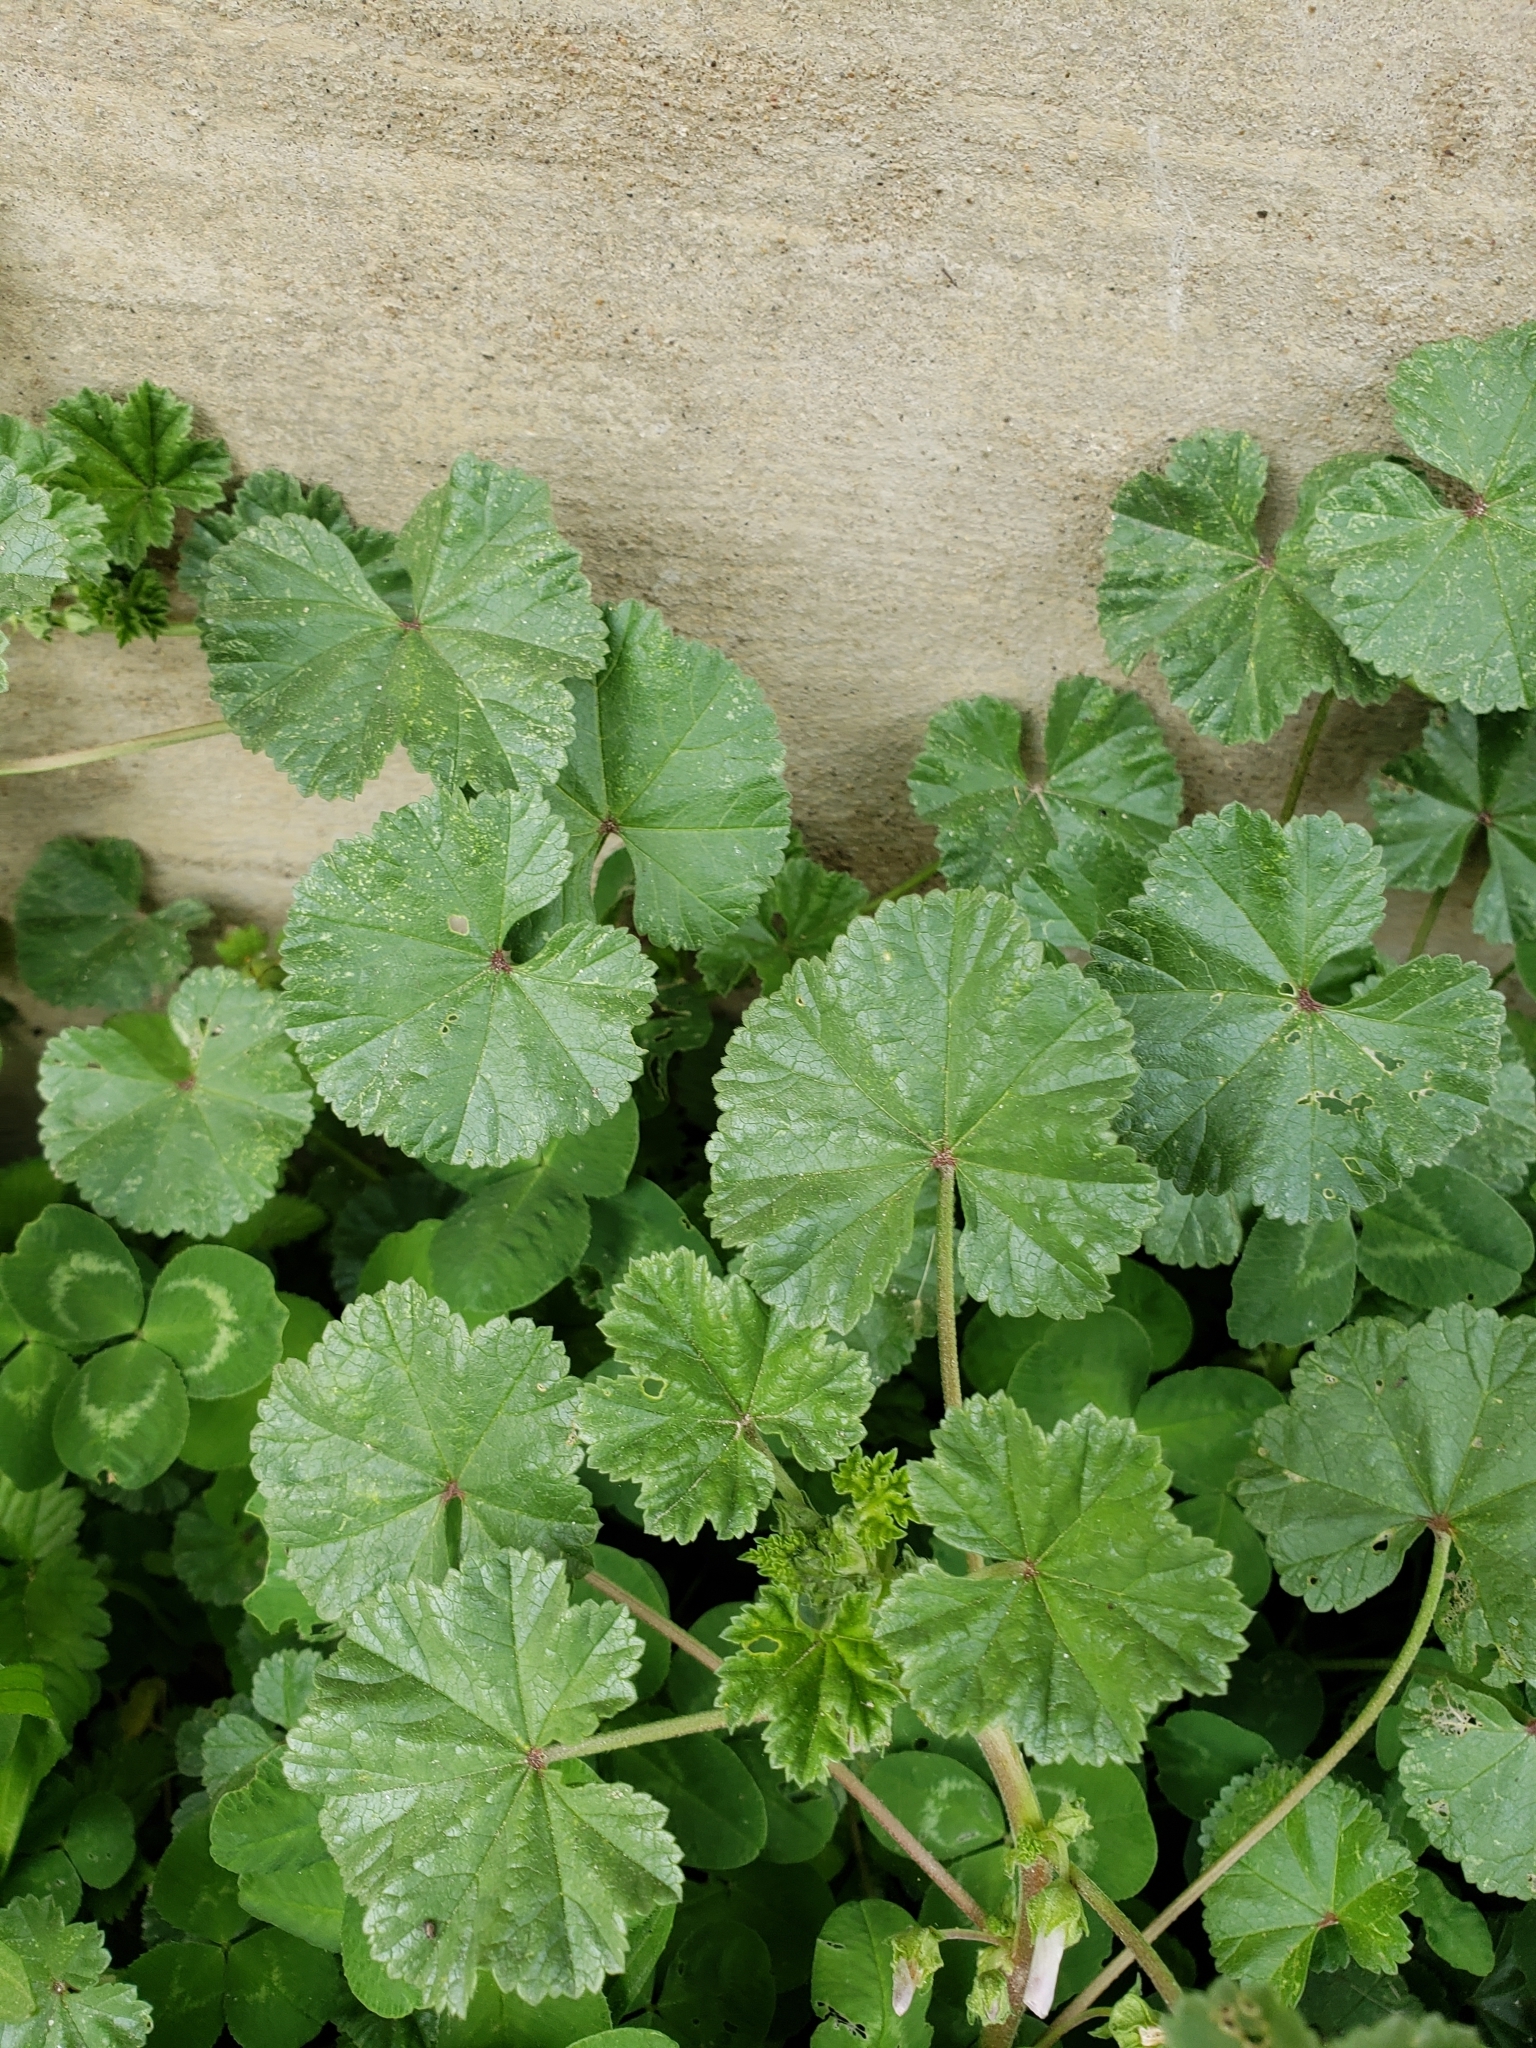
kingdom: Plantae
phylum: Tracheophyta
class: Magnoliopsida
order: Malvales
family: Malvaceae
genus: Malva
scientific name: Malva neglecta
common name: Common mallow
